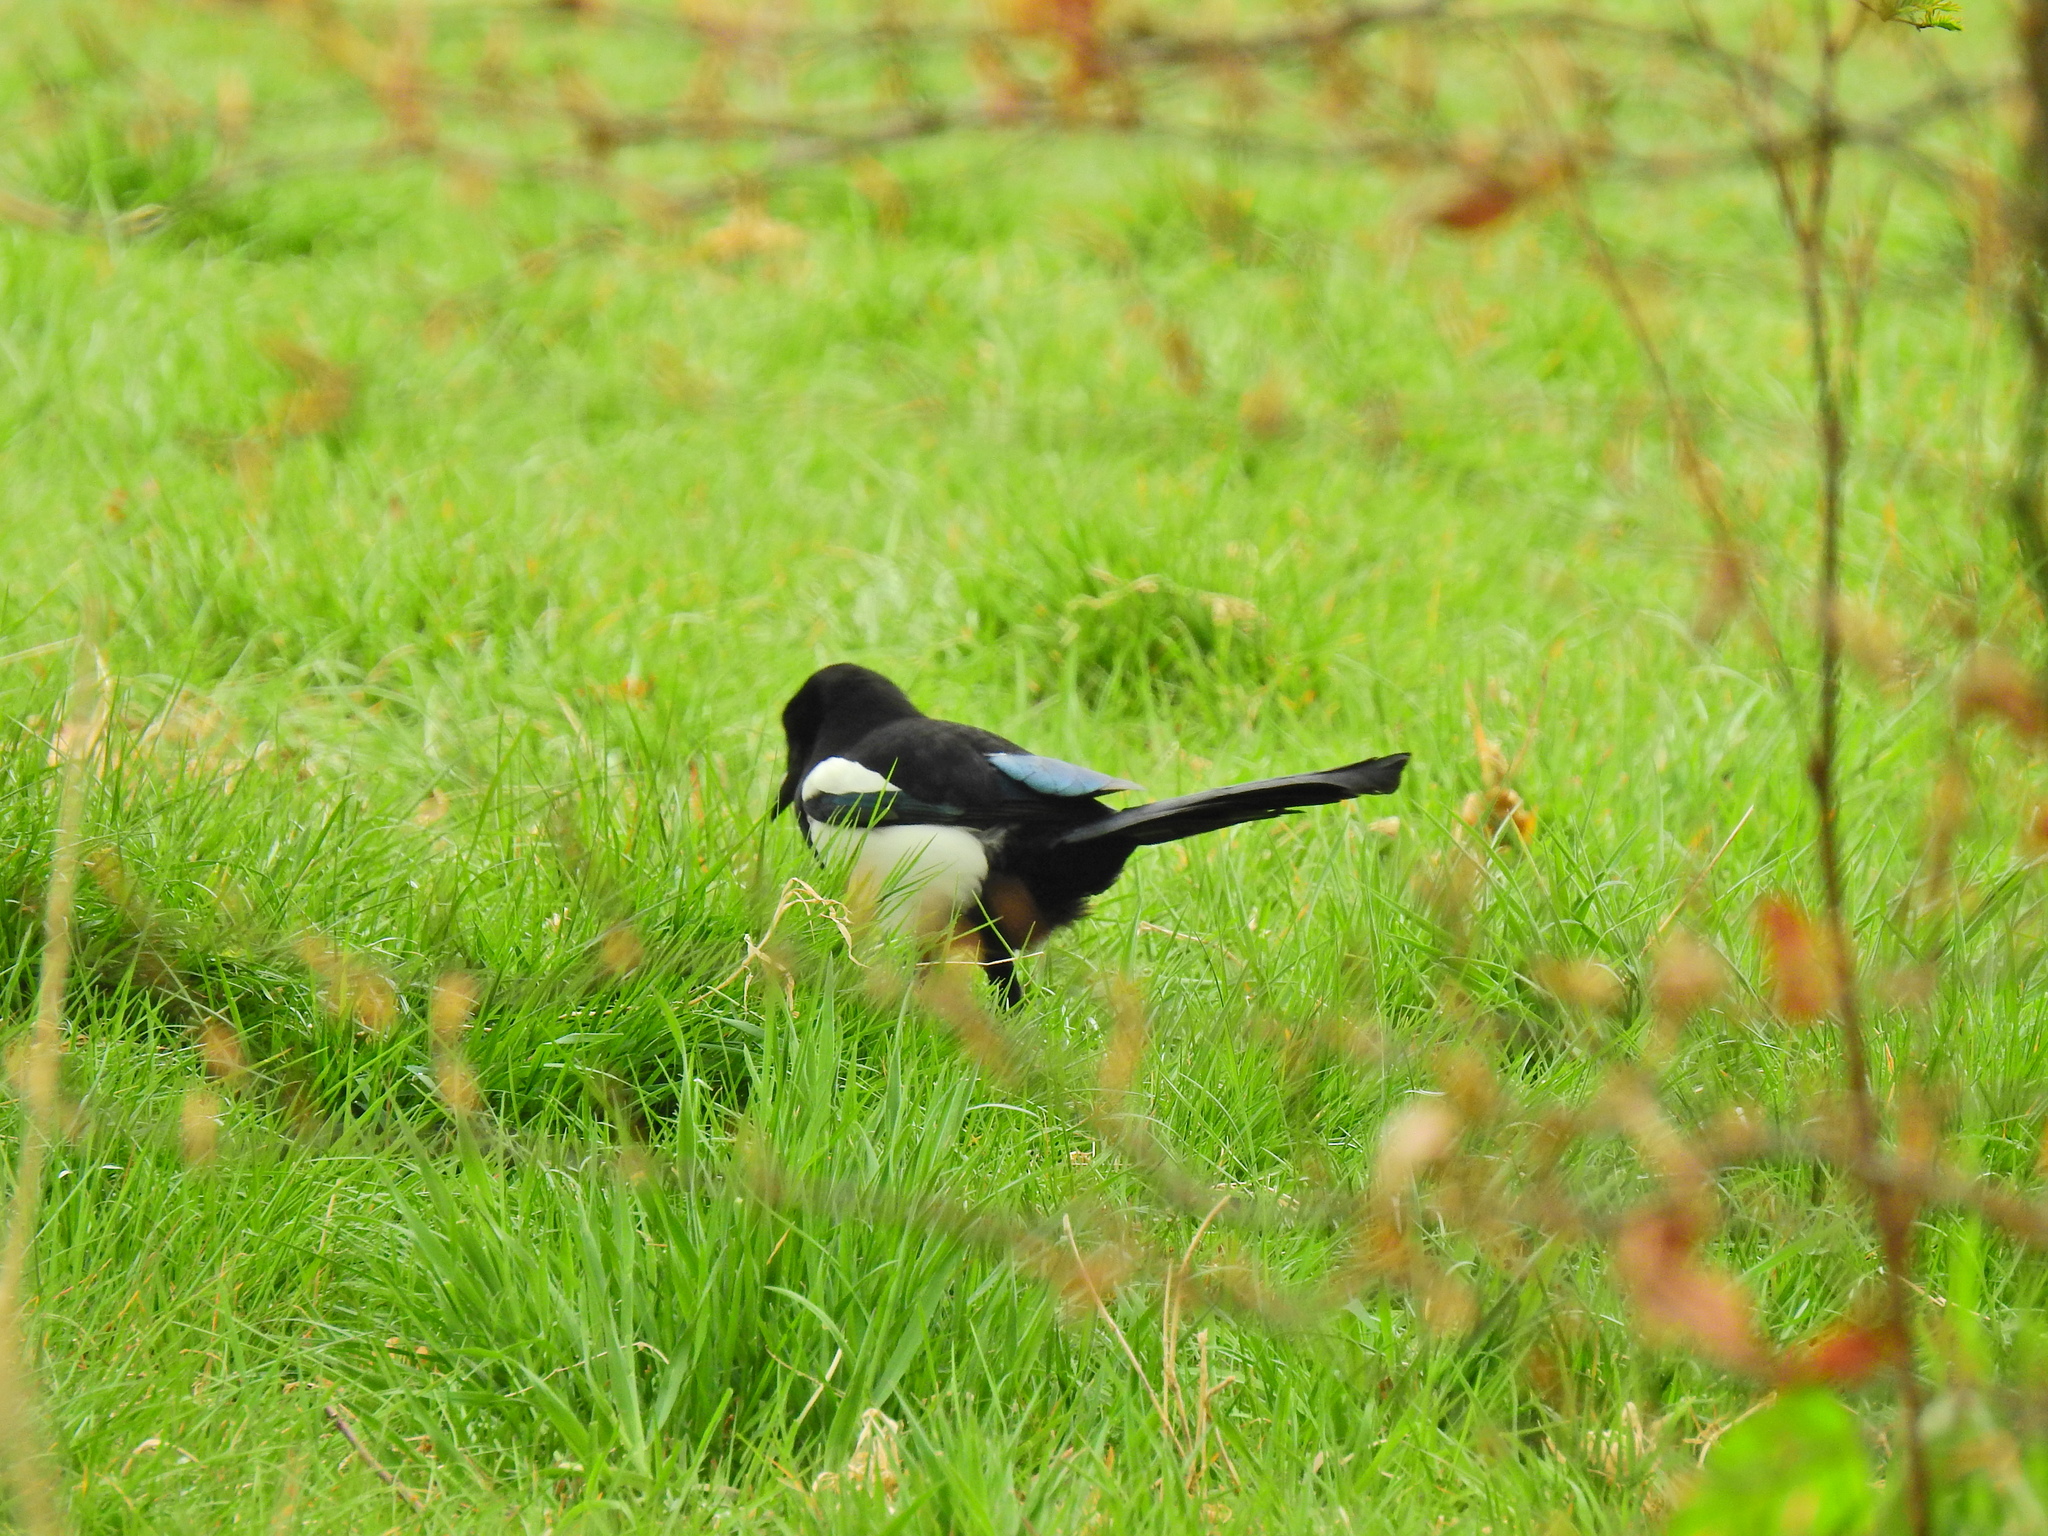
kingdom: Animalia
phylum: Chordata
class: Aves
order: Passeriformes
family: Corvidae
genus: Pica
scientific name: Pica pica
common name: Eurasian magpie
